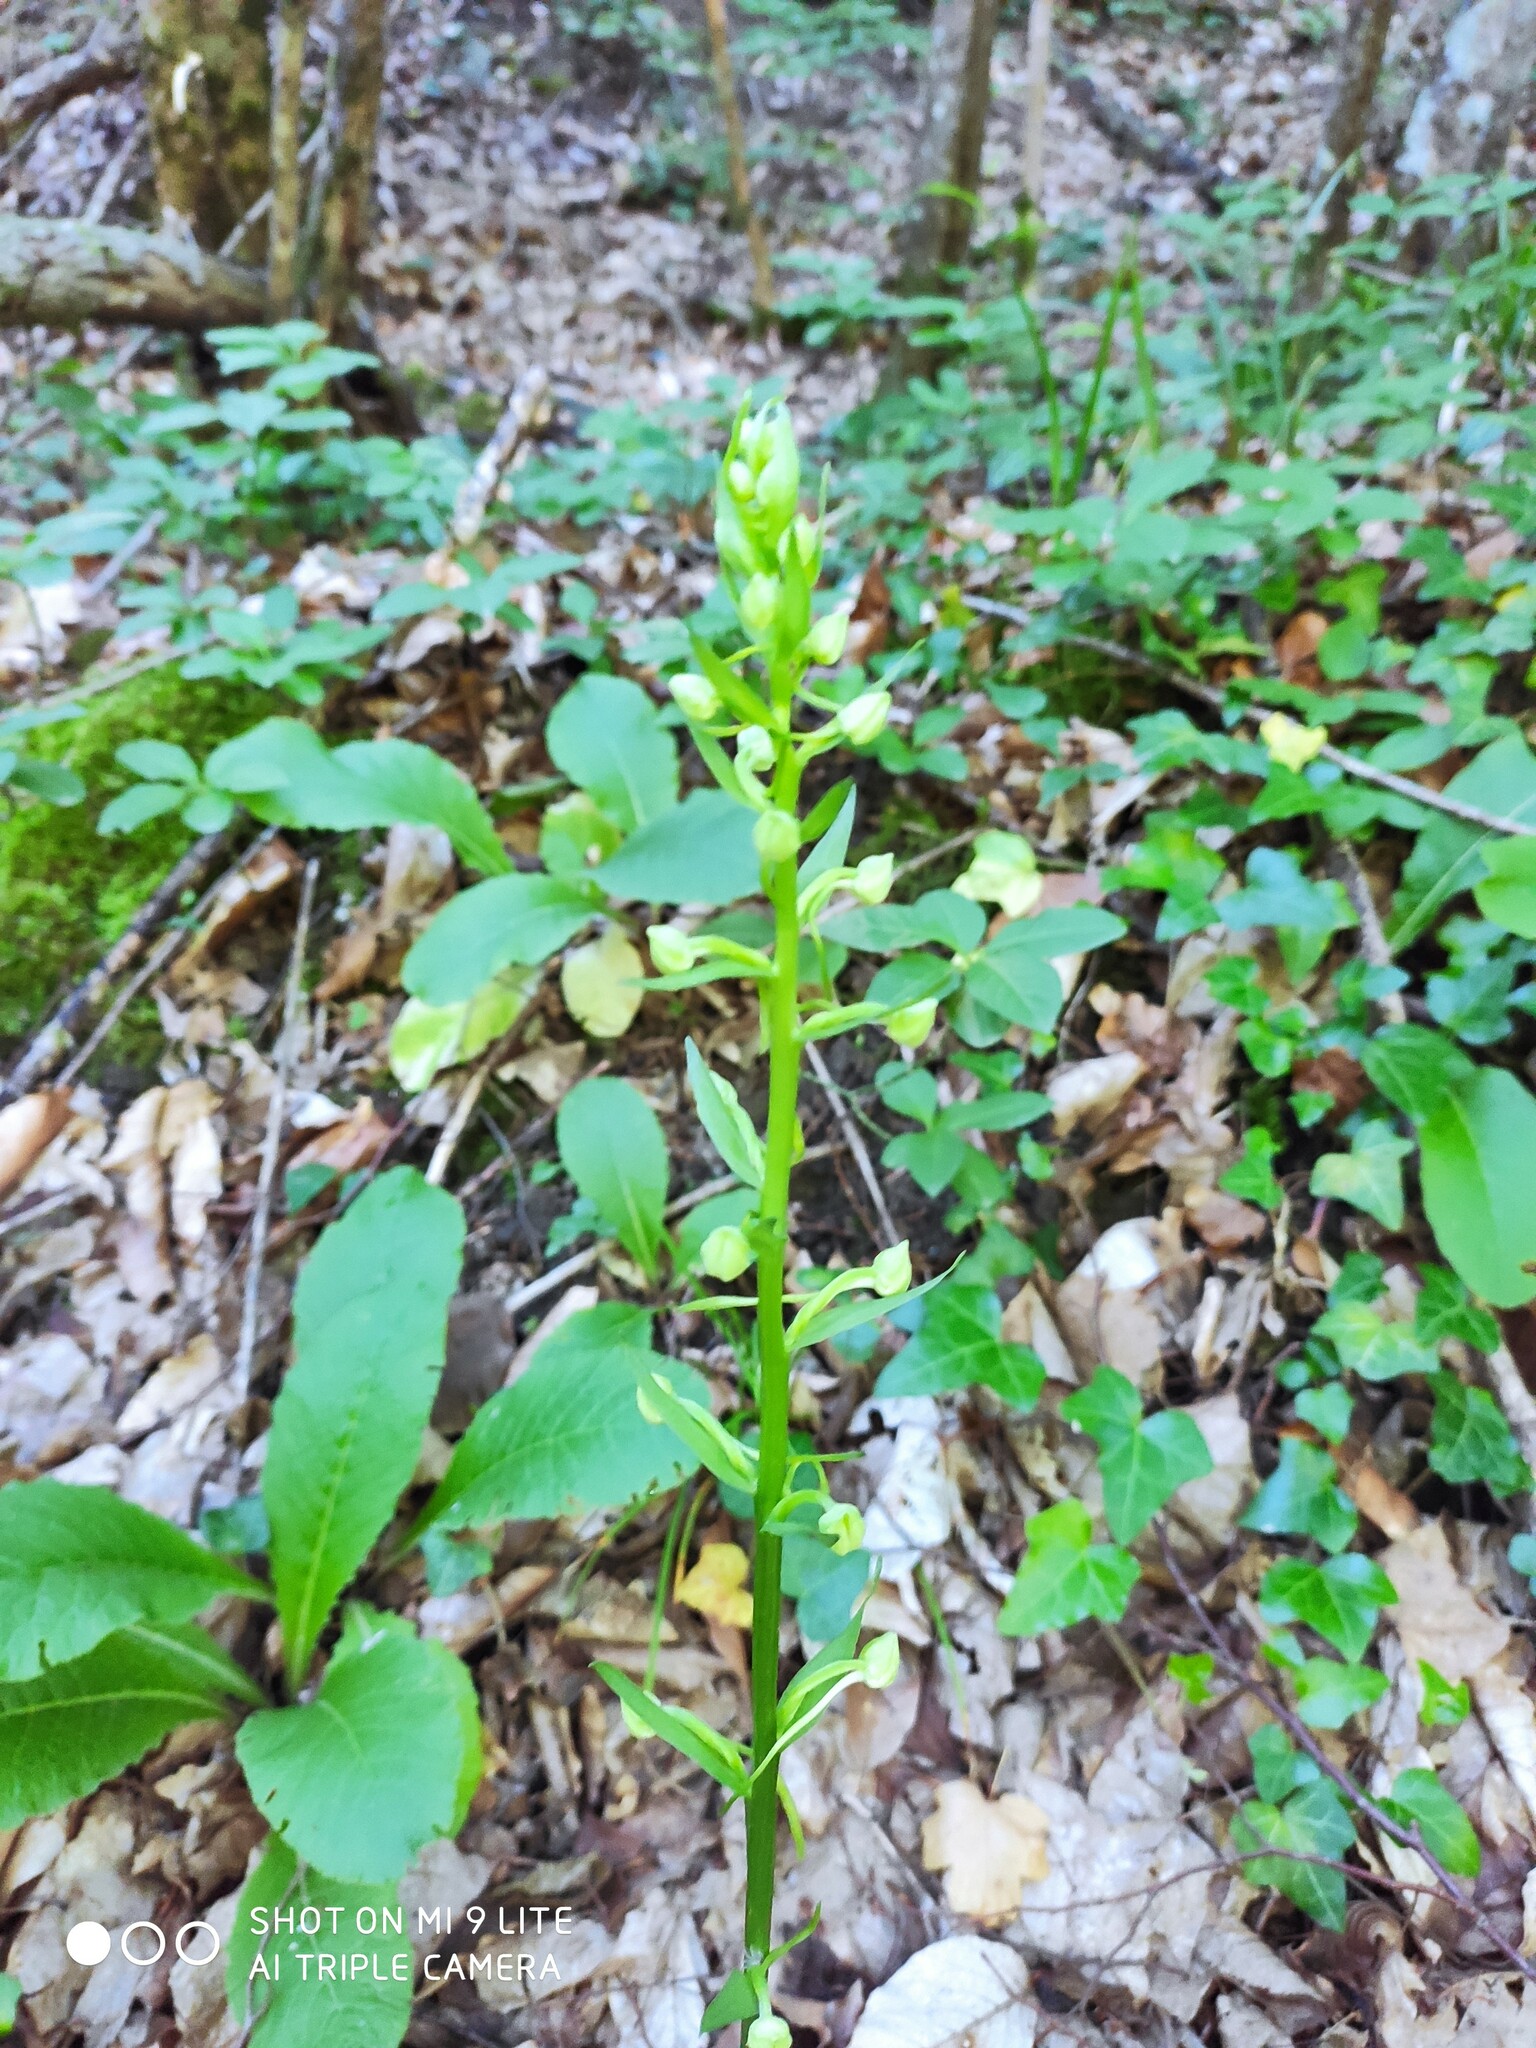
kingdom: Plantae
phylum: Tracheophyta
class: Liliopsida
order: Asparagales
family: Orchidaceae
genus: Platanthera
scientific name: Platanthera chlorantha
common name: Greater butterfly-orchid
